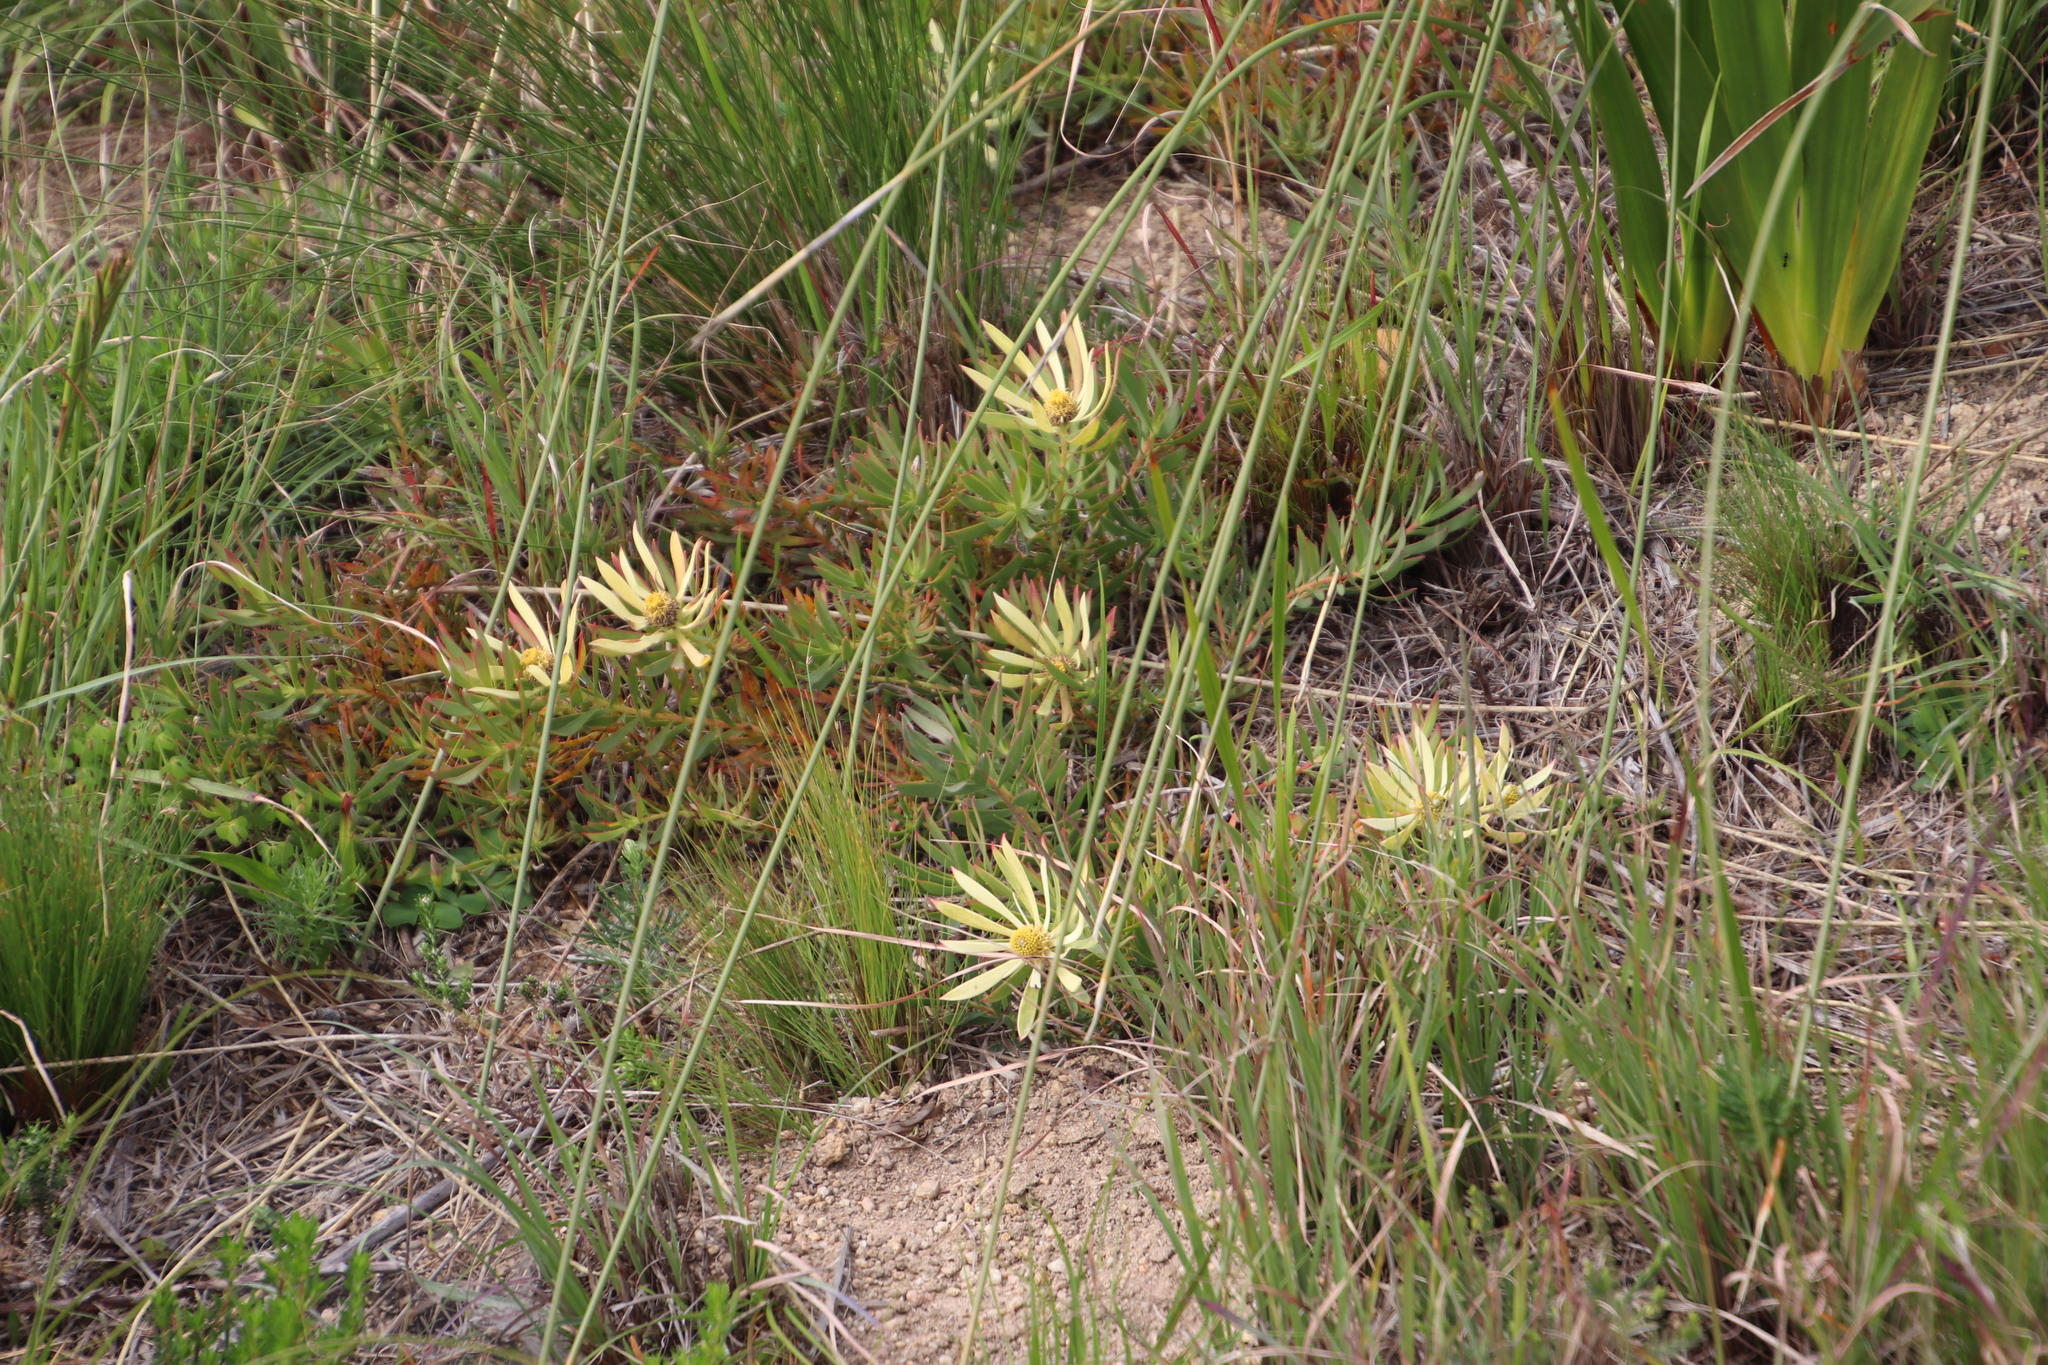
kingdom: Plantae
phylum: Tracheophyta
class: Magnoliopsida
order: Proteales
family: Proteaceae
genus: Leucadendron
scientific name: Leucadendron salignum
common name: Common sunshine conebush
